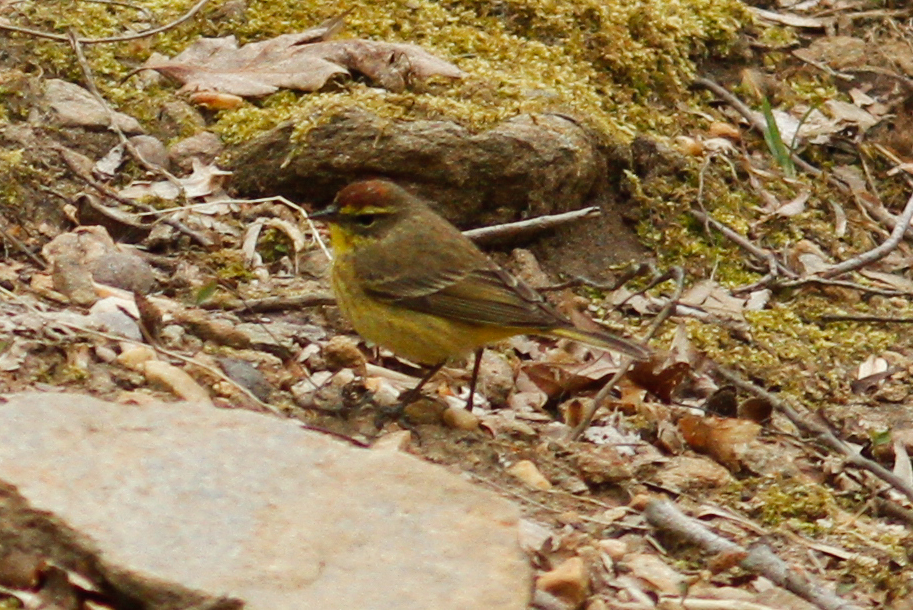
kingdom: Animalia
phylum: Chordata
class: Aves
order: Passeriformes
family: Parulidae
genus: Setophaga
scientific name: Setophaga palmarum
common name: Palm warbler
